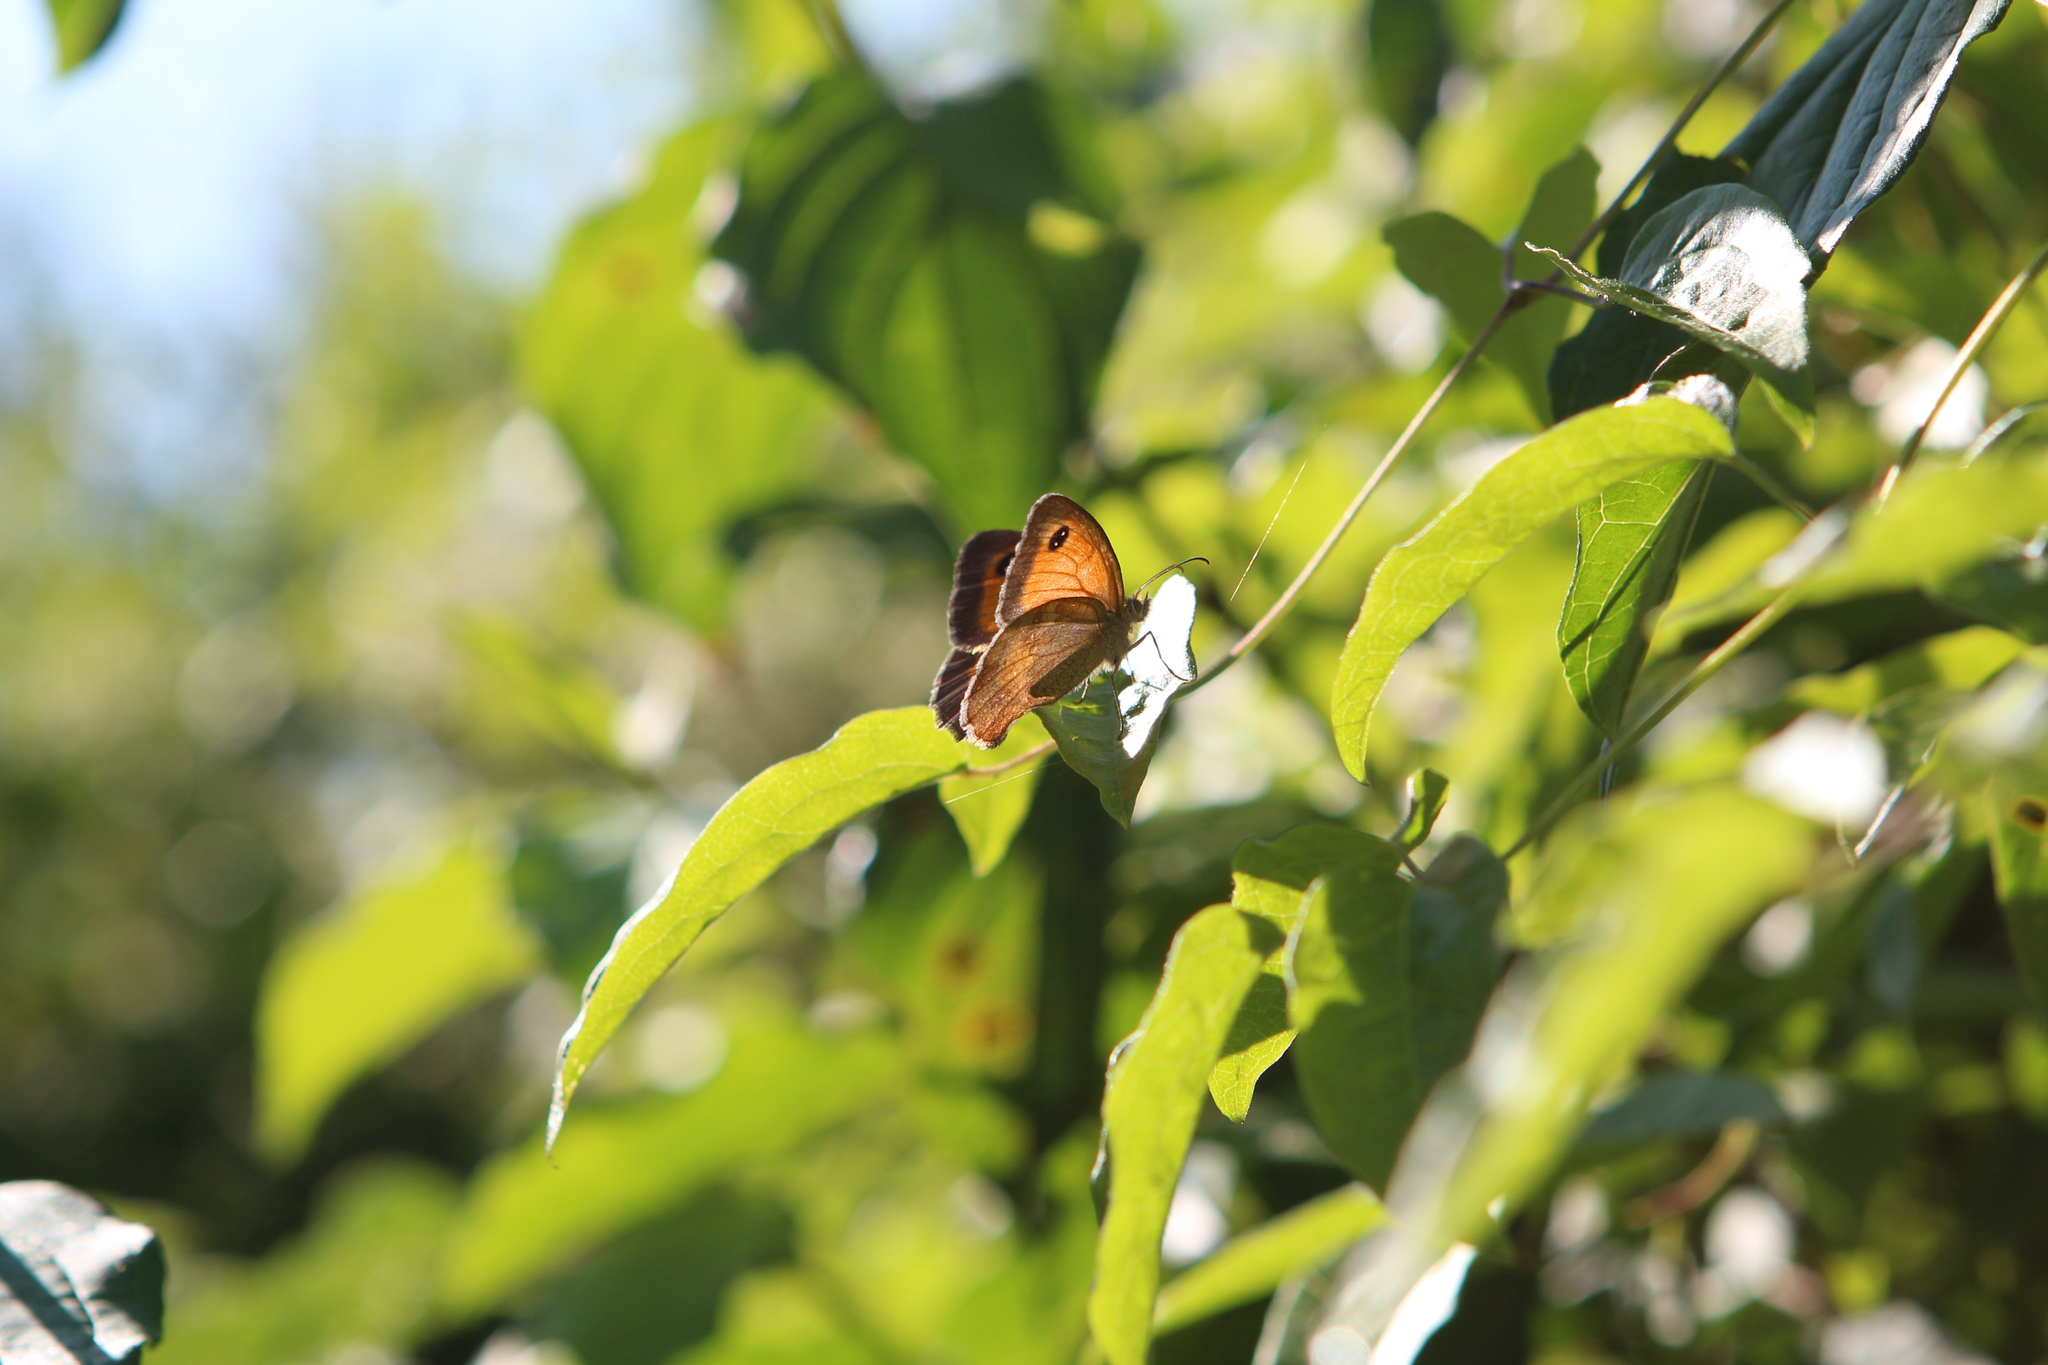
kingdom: Animalia
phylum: Arthropoda
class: Insecta
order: Lepidoptera
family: Nymphalidae
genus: Pyronia
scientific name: Pyronia tithonus
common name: Gatekeeper
